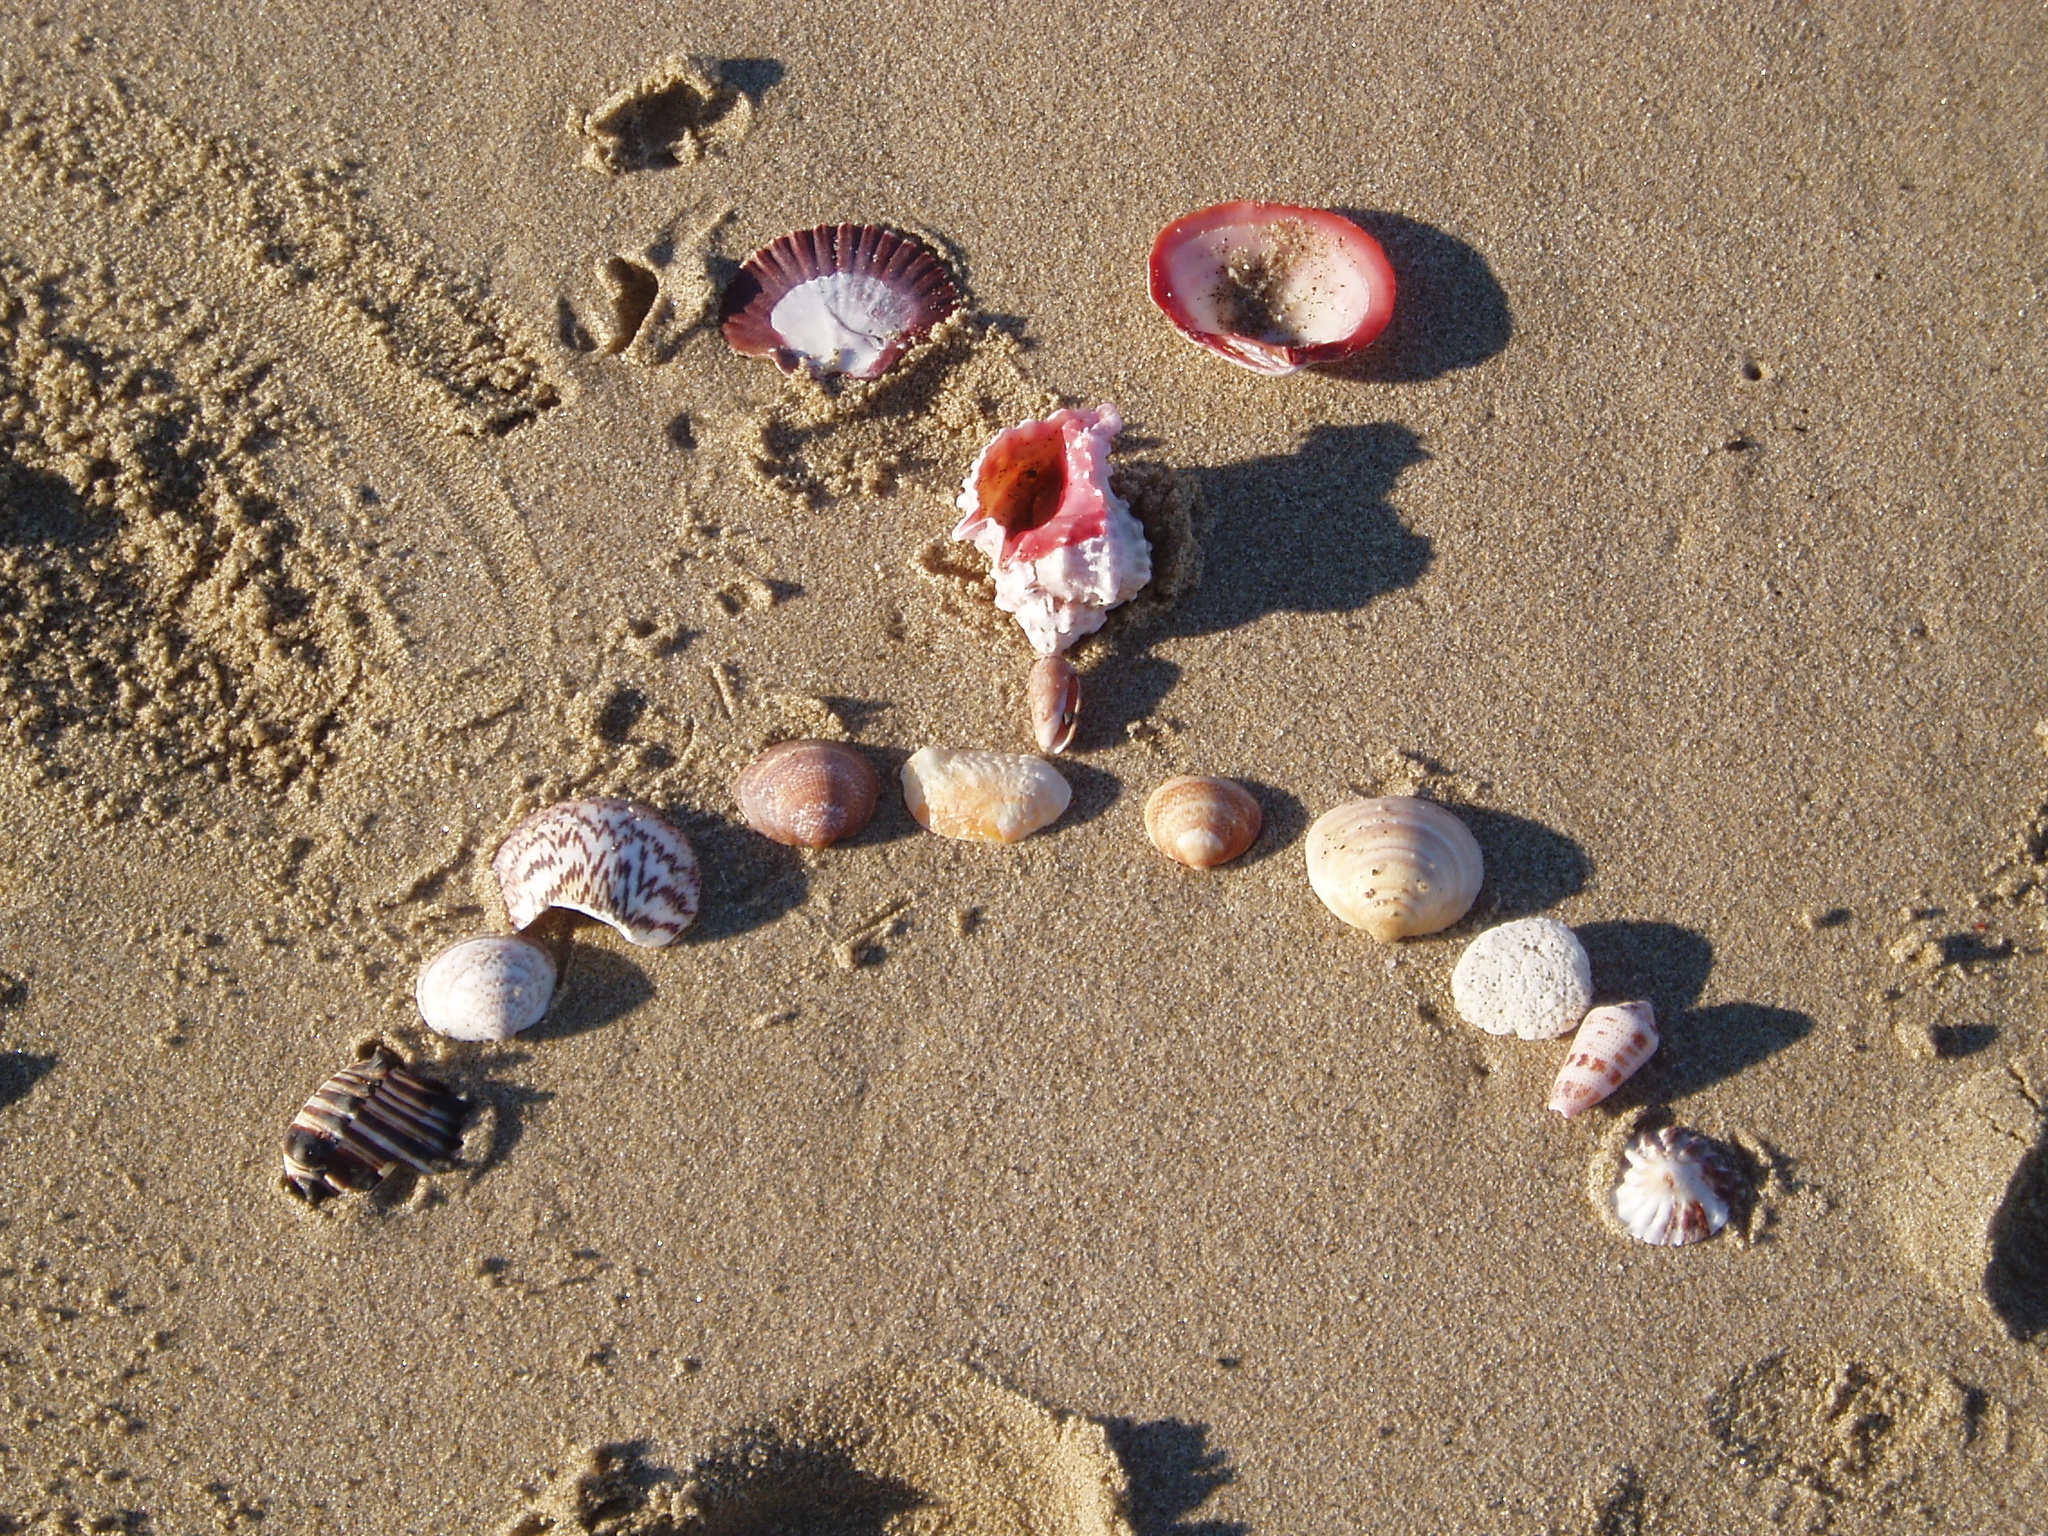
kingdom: Animalia
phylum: Mollusca
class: Gastropoda
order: Neogastropoda
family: Muricidae
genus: Phyllonotus
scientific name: Phyllonotus erythrostomus
